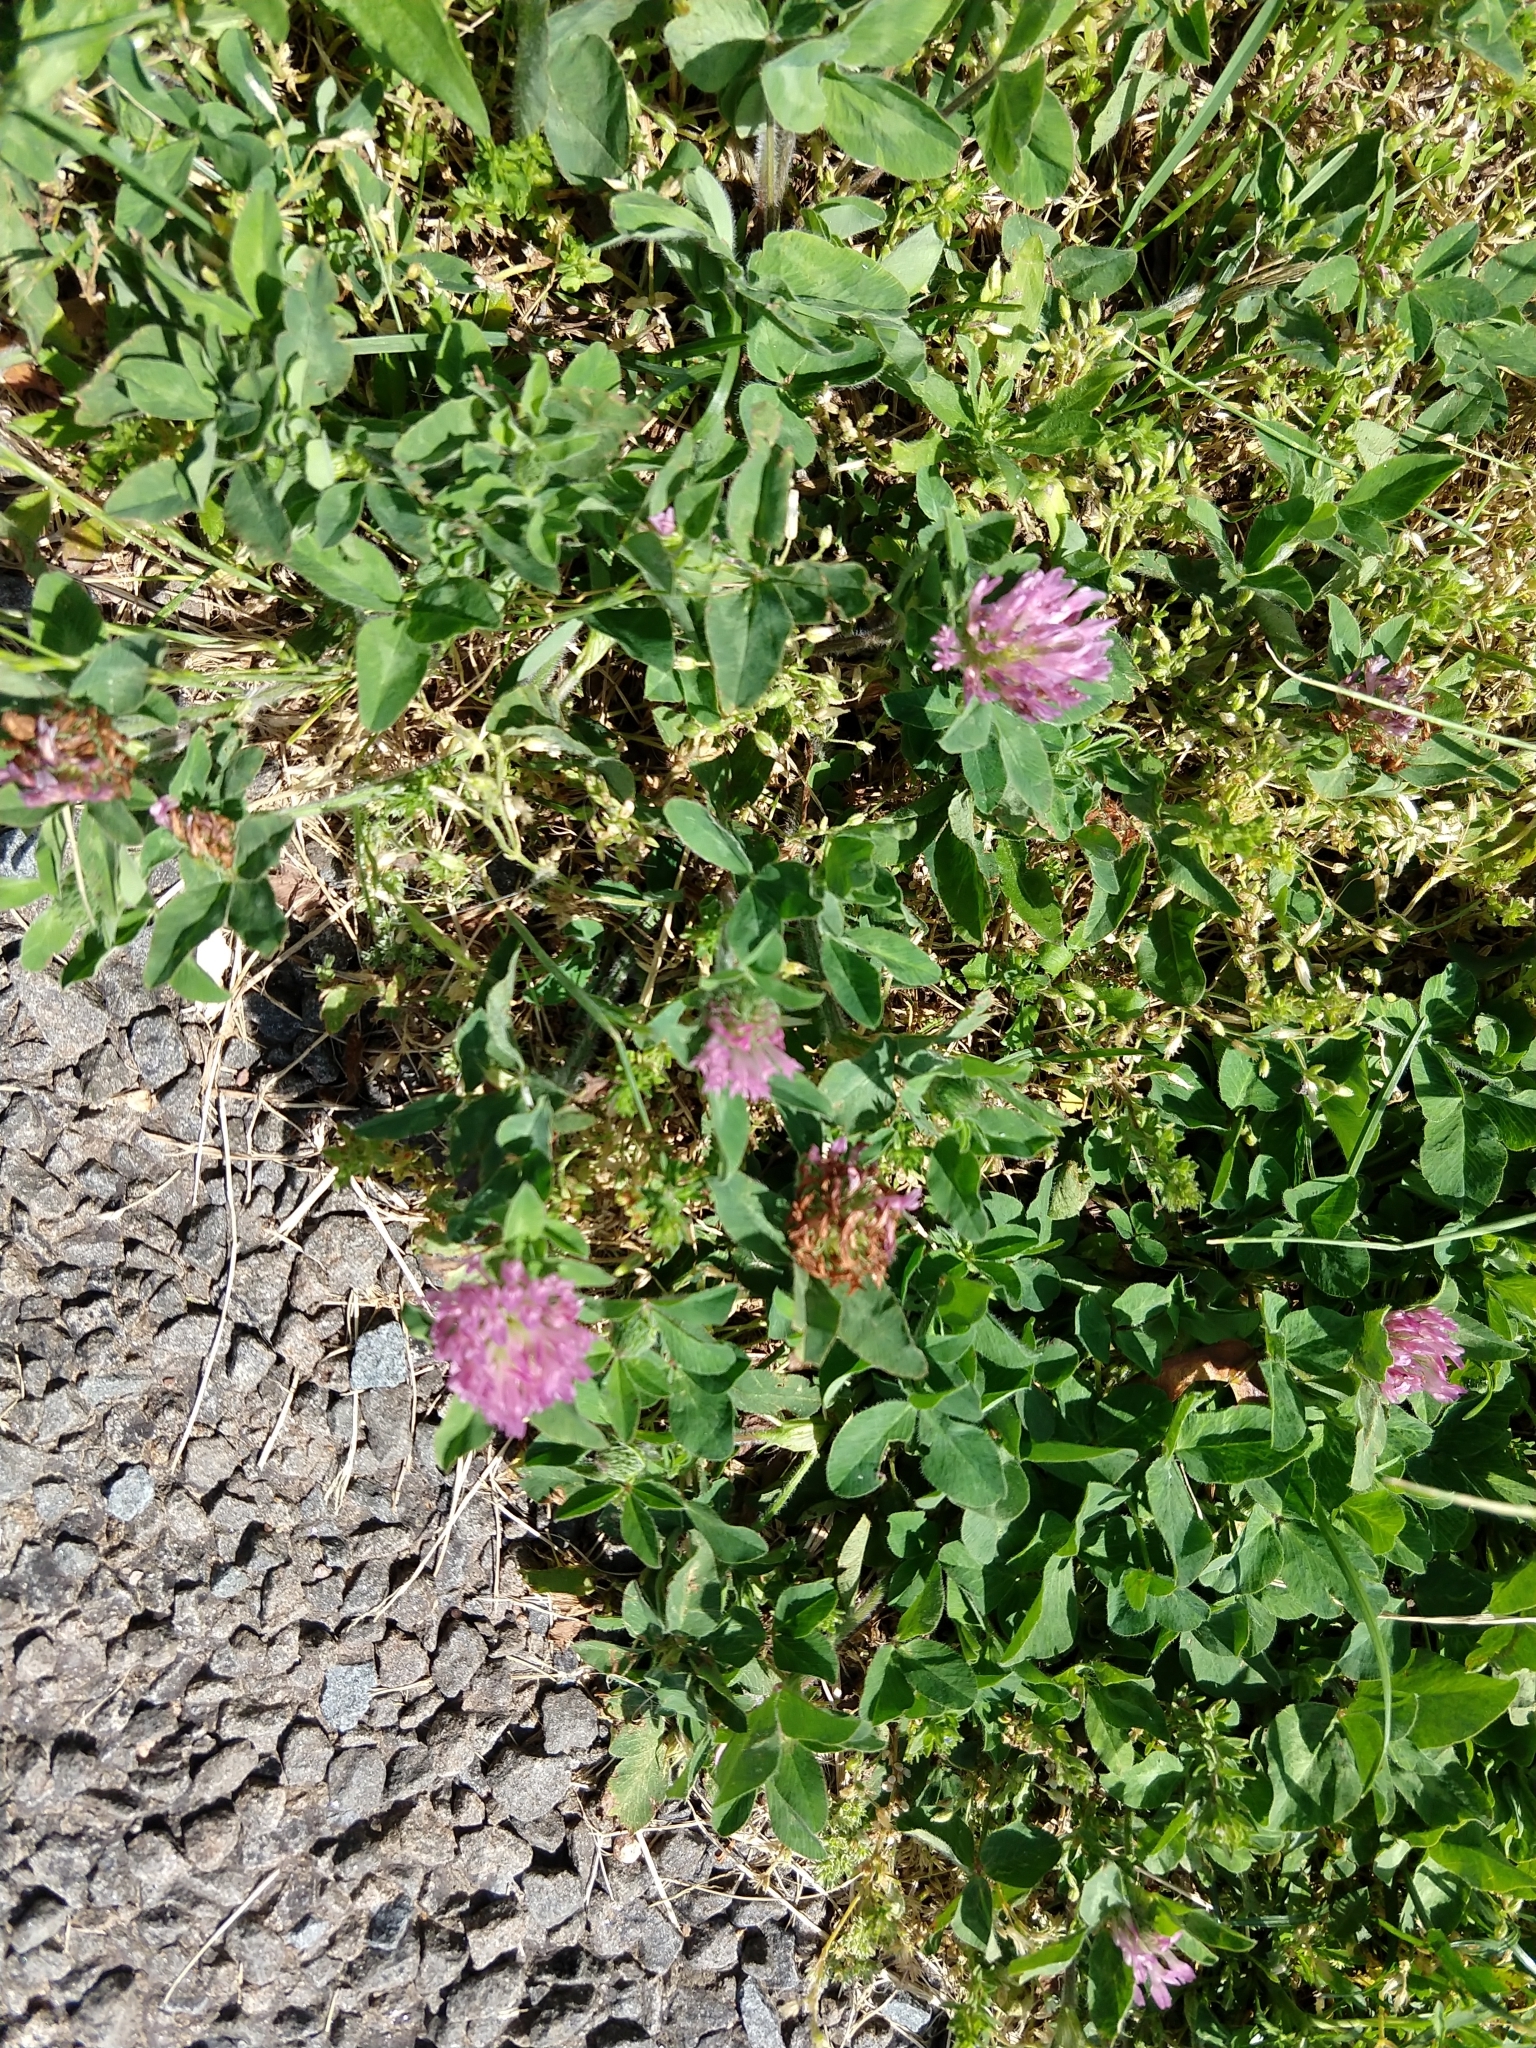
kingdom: Plantae
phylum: Tracheophyta
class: Magnoliopsida
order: Fabales
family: Fabaceae
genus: Trifolium
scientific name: Trifolium pratense
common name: Red clover
